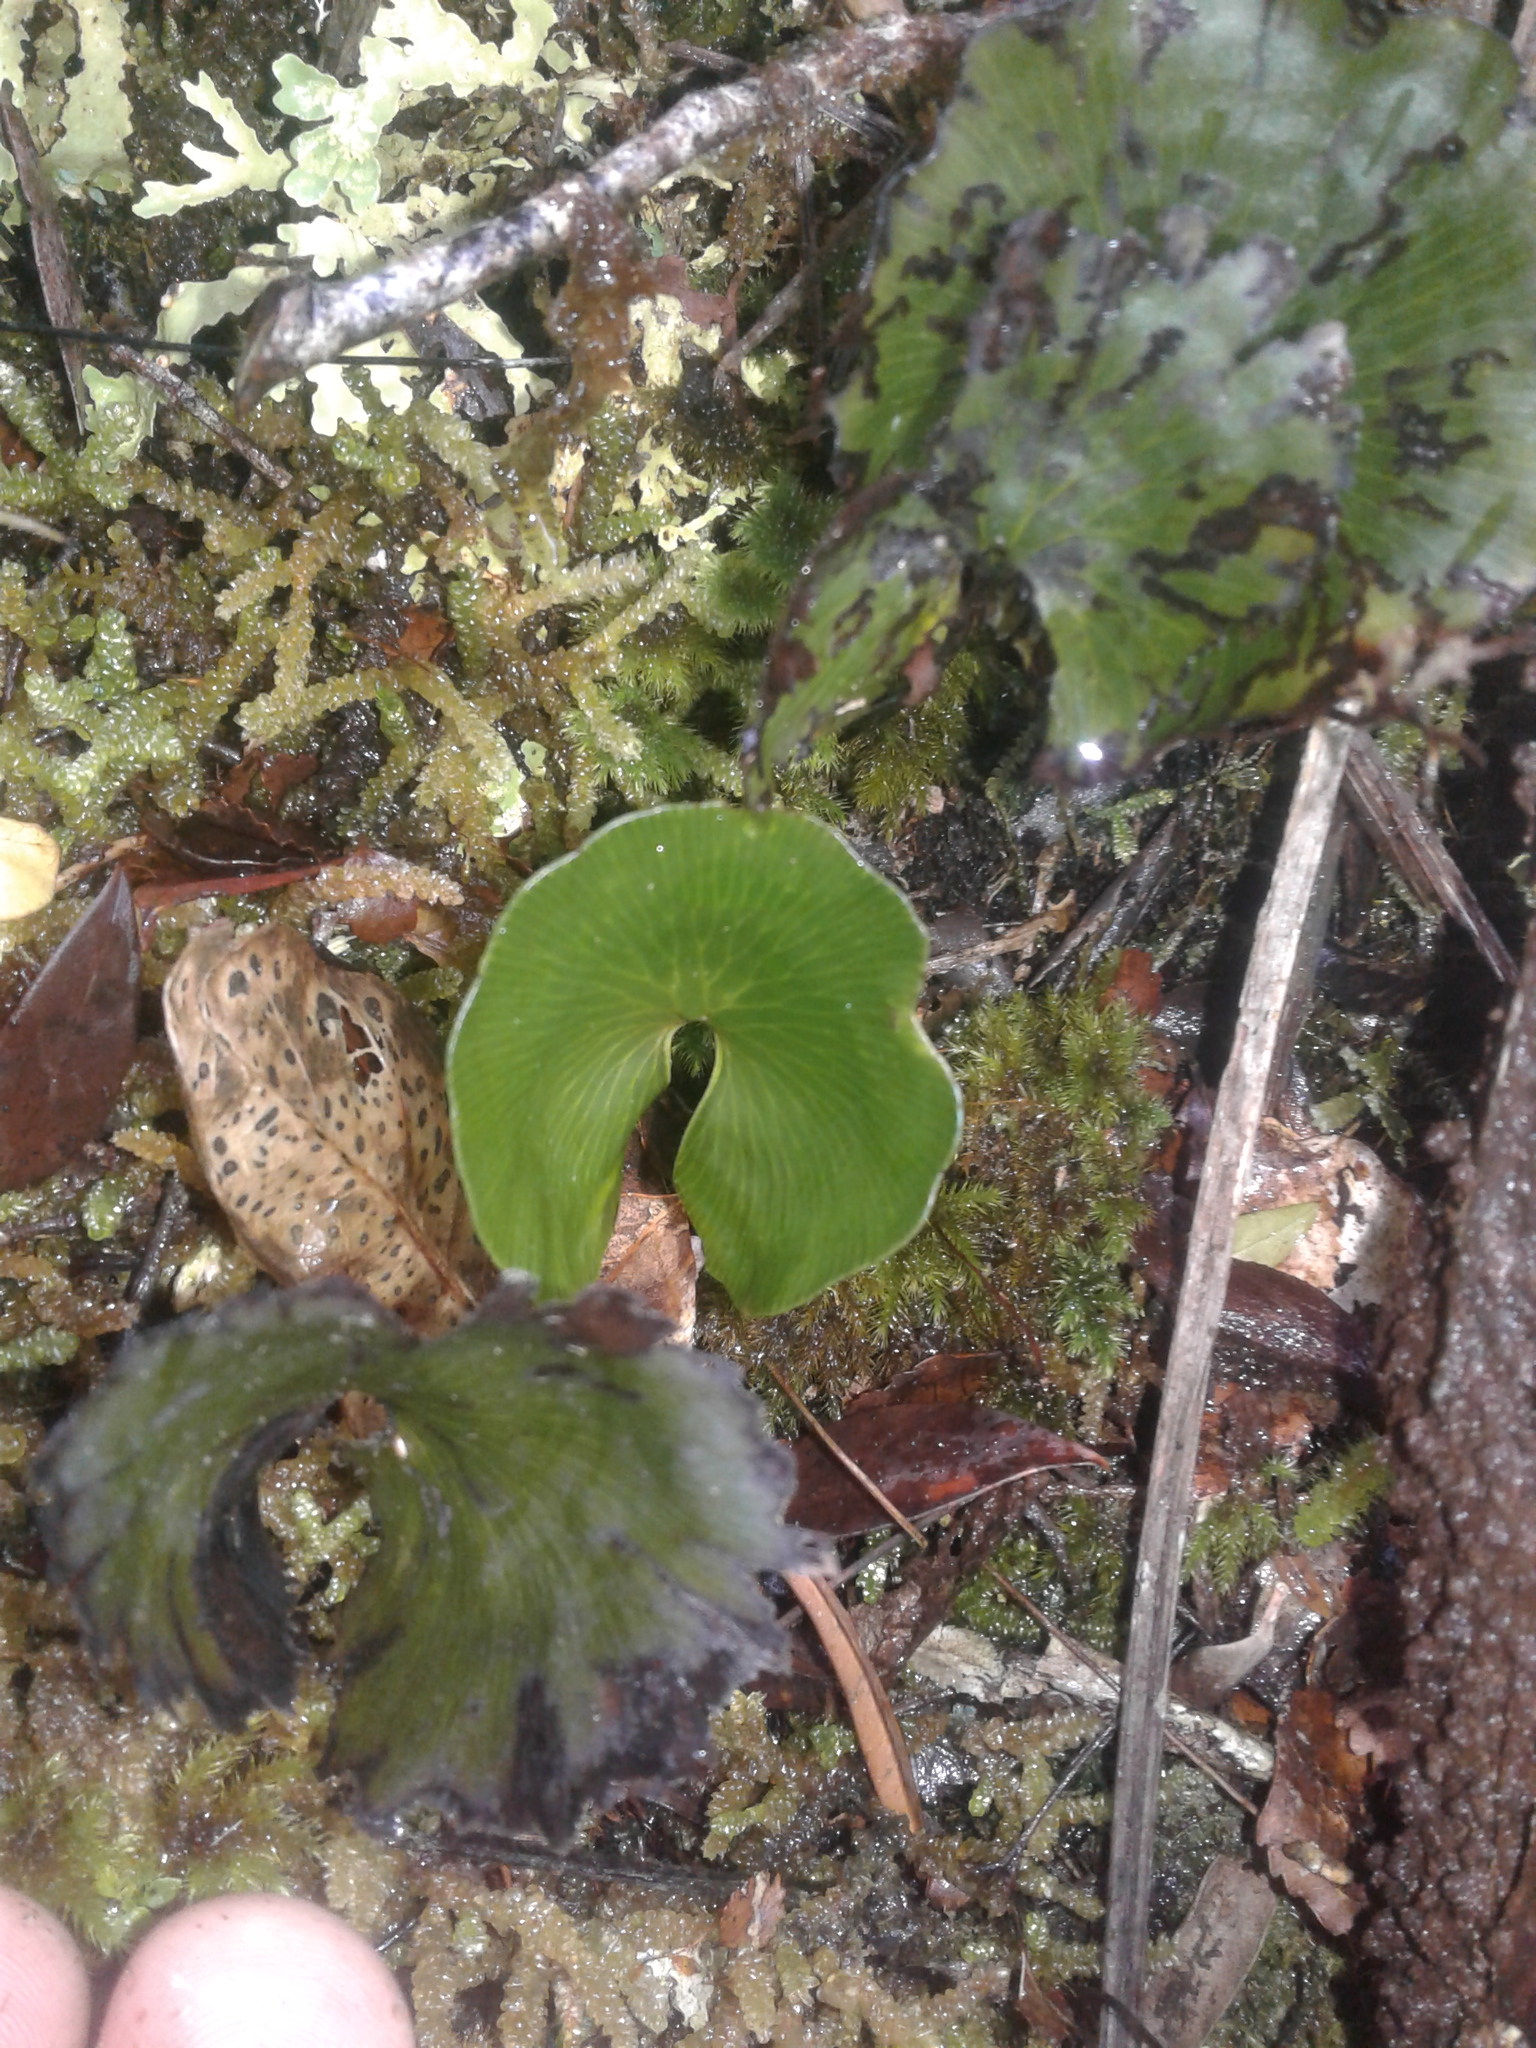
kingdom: Plantae
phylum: Tracheophyta
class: Polypodiopsida
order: Hymenophyllales
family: Hymenophyllaceae
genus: Hymenophyllum
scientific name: Hymenophyllum nephrophyllum
